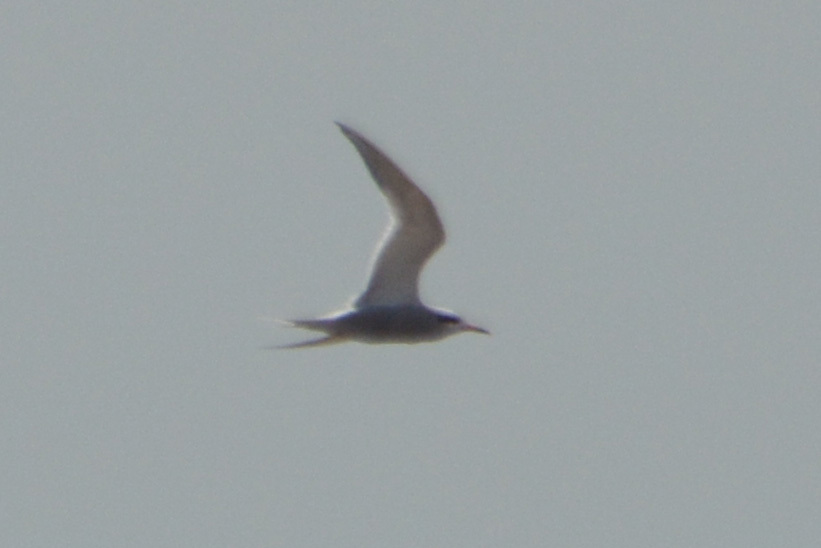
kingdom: Animalia
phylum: Chordata
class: Aves
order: Charadriiformes
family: Laridae
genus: Sterna
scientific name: Sterna trudeaui
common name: Snowy-crowned tern
